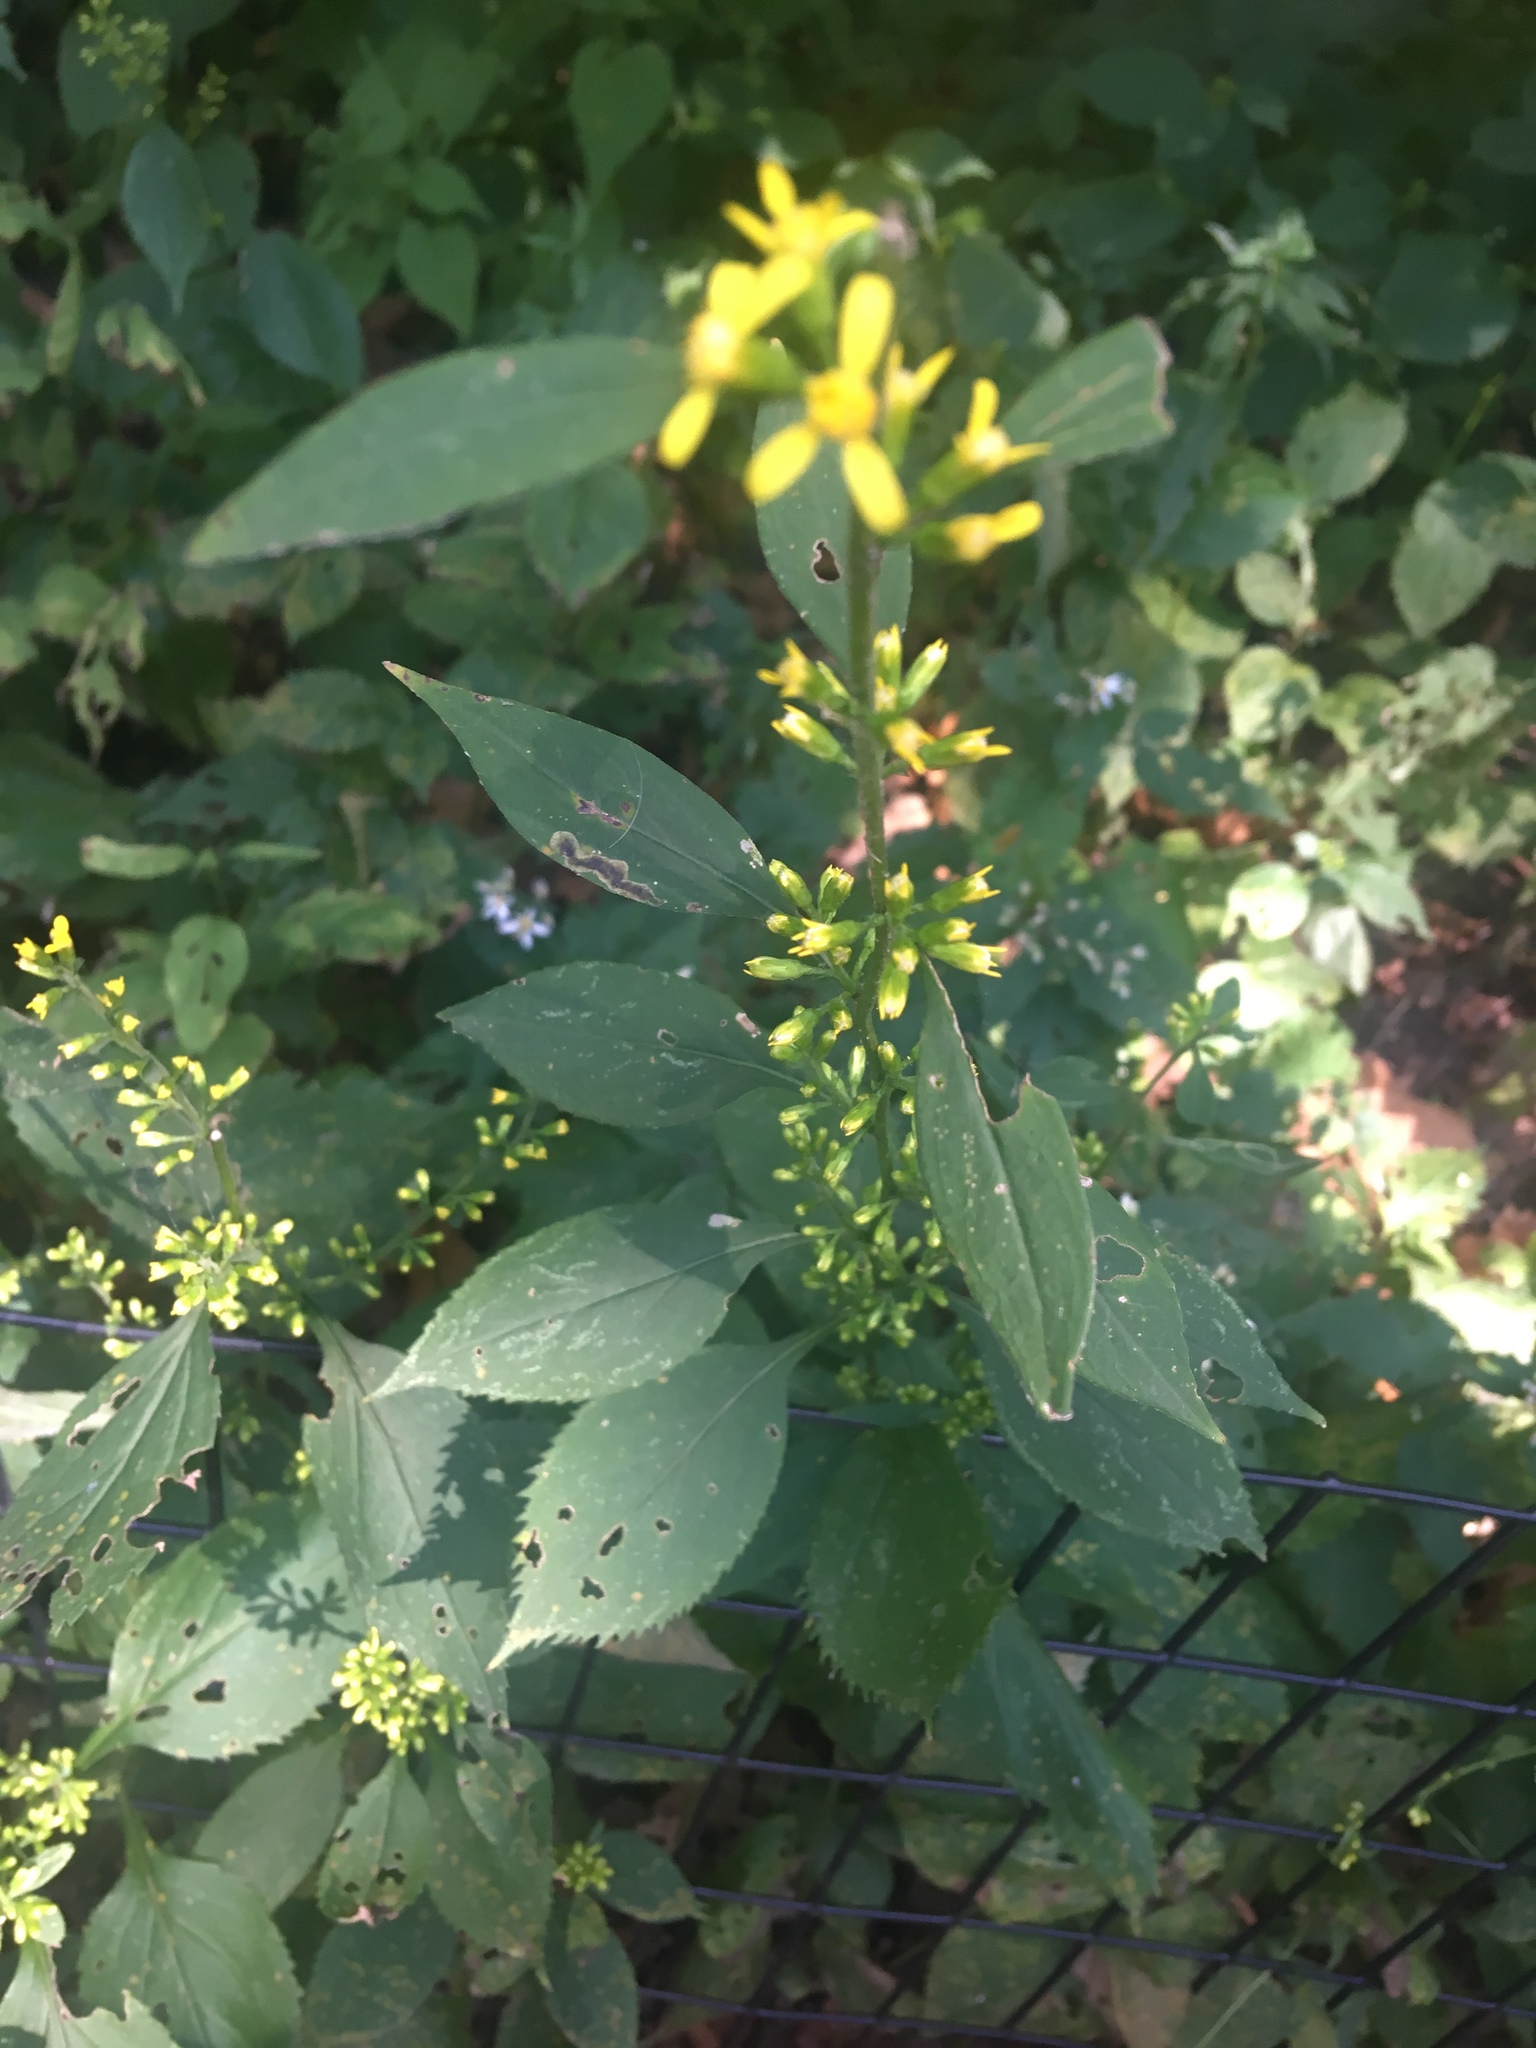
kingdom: Plantae
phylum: Tracheophyta
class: Magnoliopsida
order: Asterales
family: Asteraceae
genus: Solidago
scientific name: Solidago flexicaulis
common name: Zig-zag goldenrod
